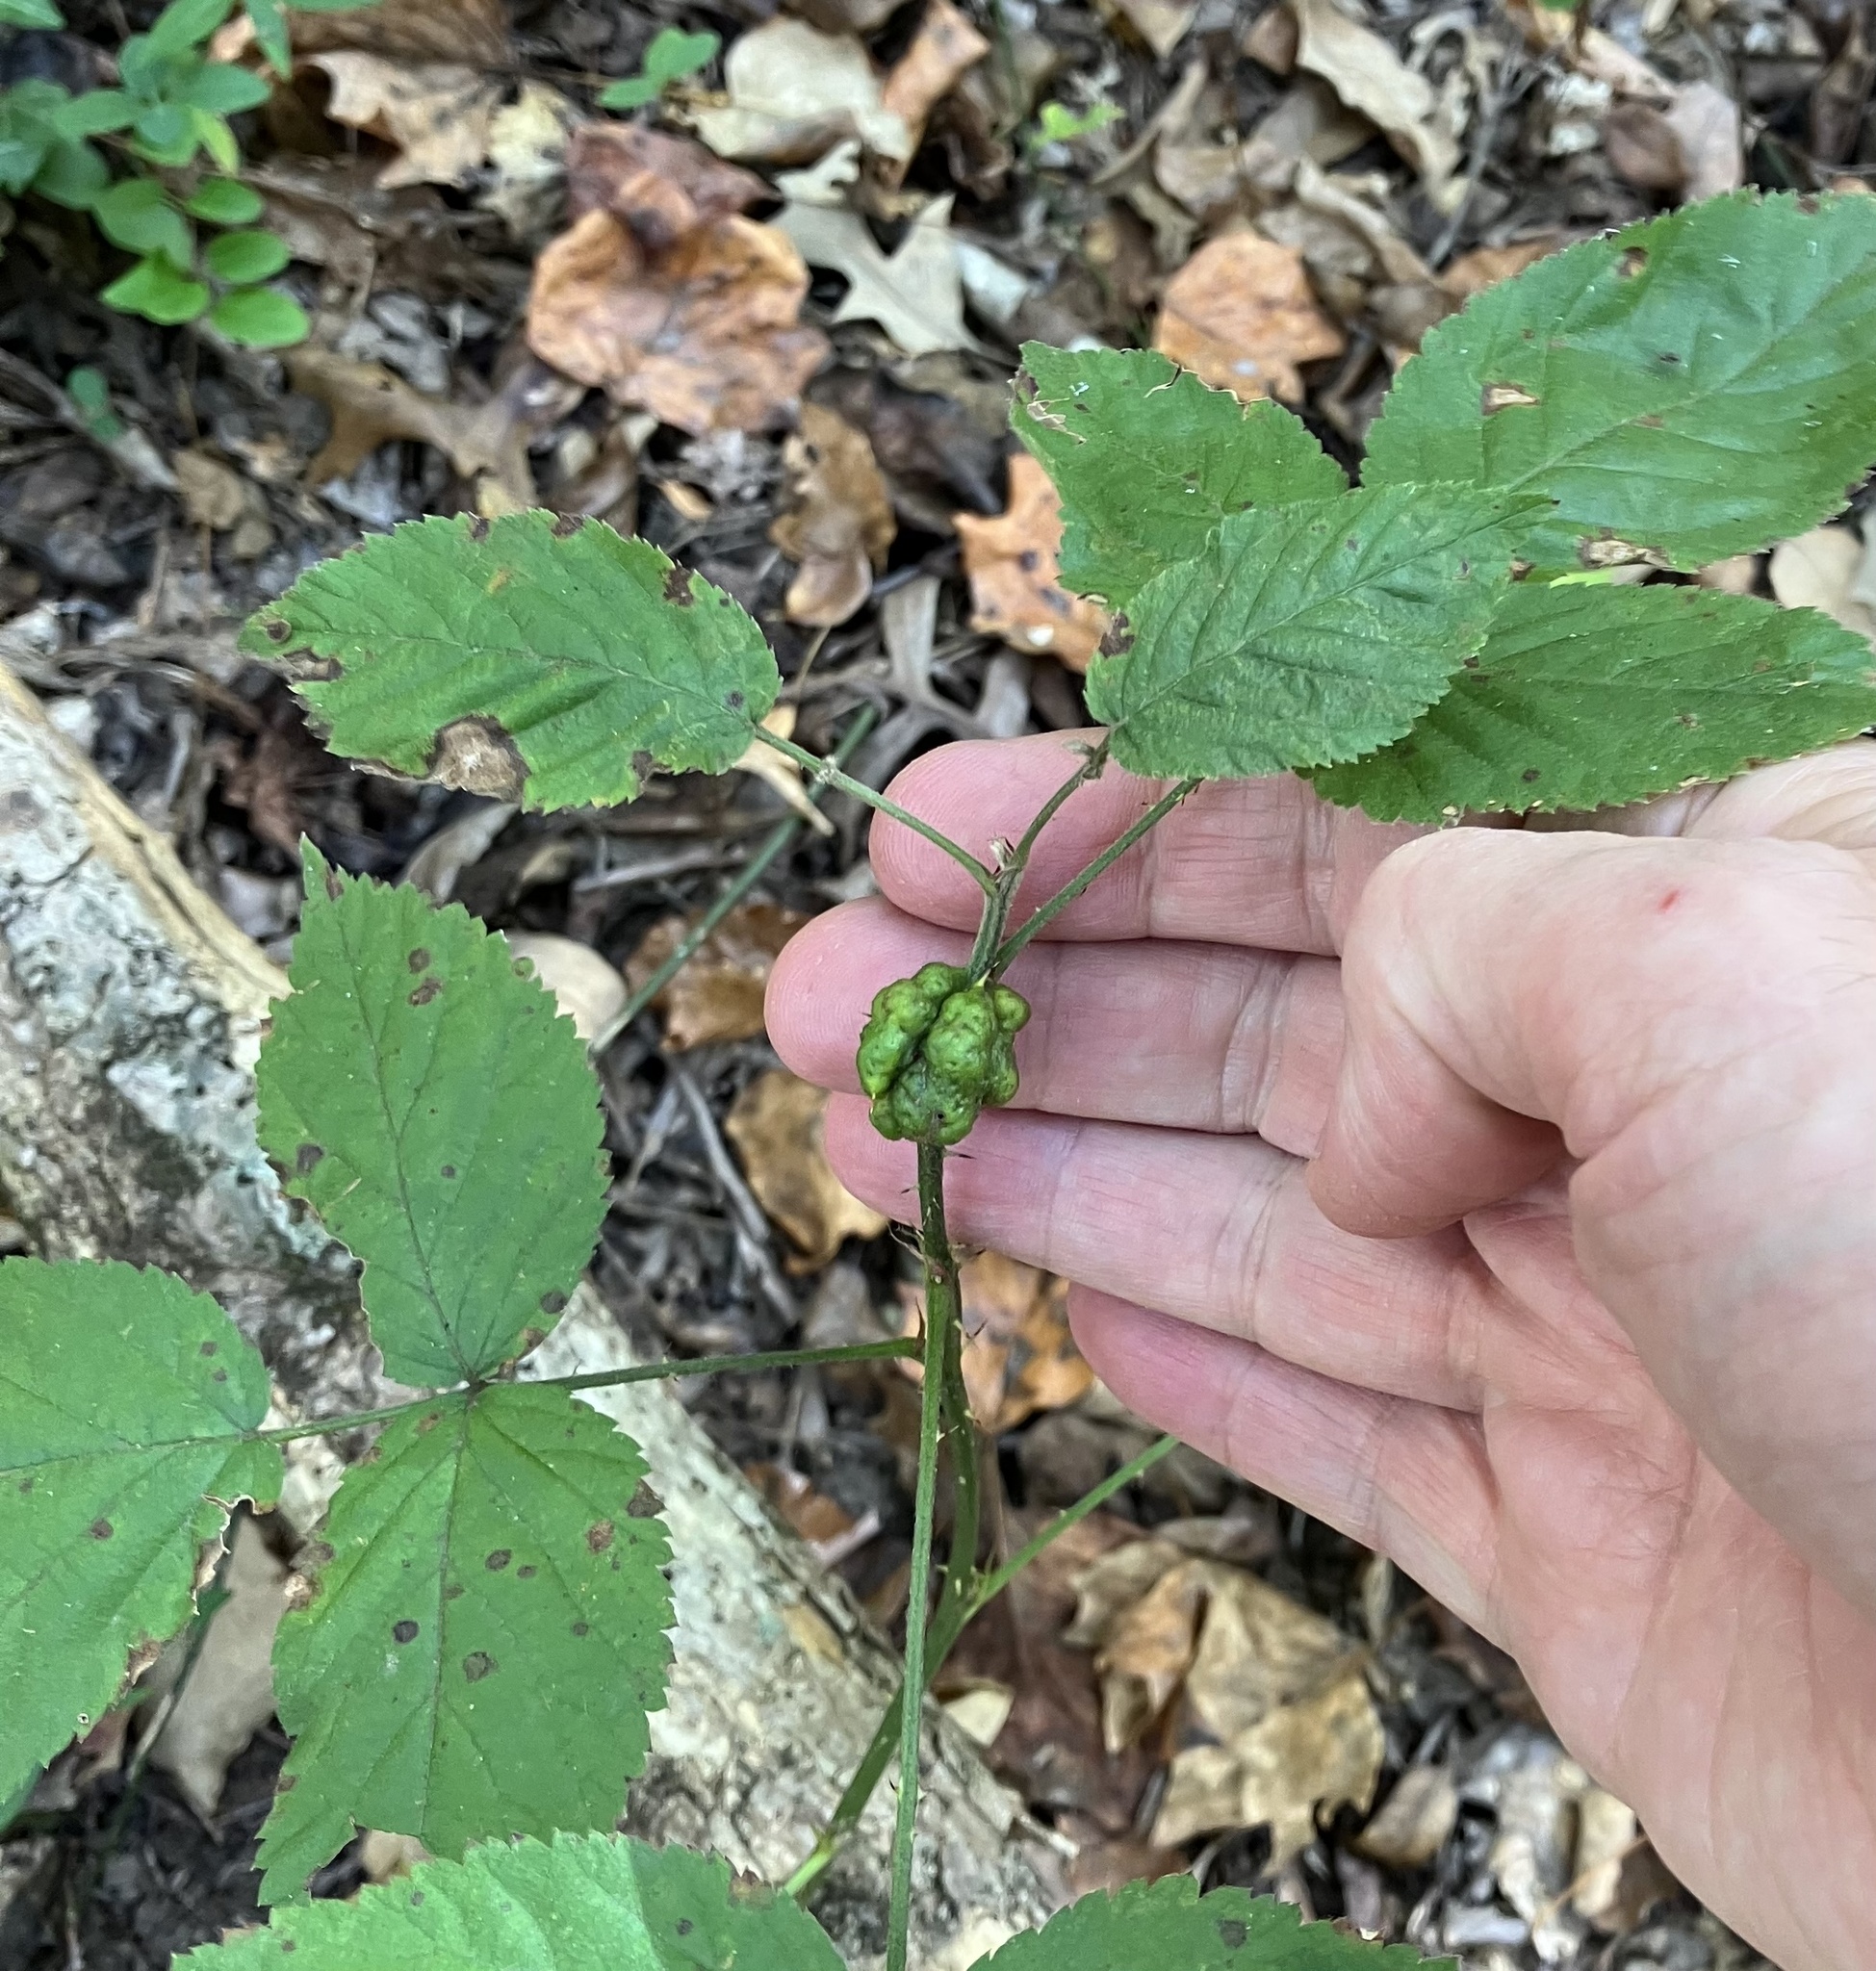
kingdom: Animalia
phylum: Arthropoda
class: Insecta
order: Hymenoptera
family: Cynipidae
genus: Diastrophus
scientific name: Diastrophus
